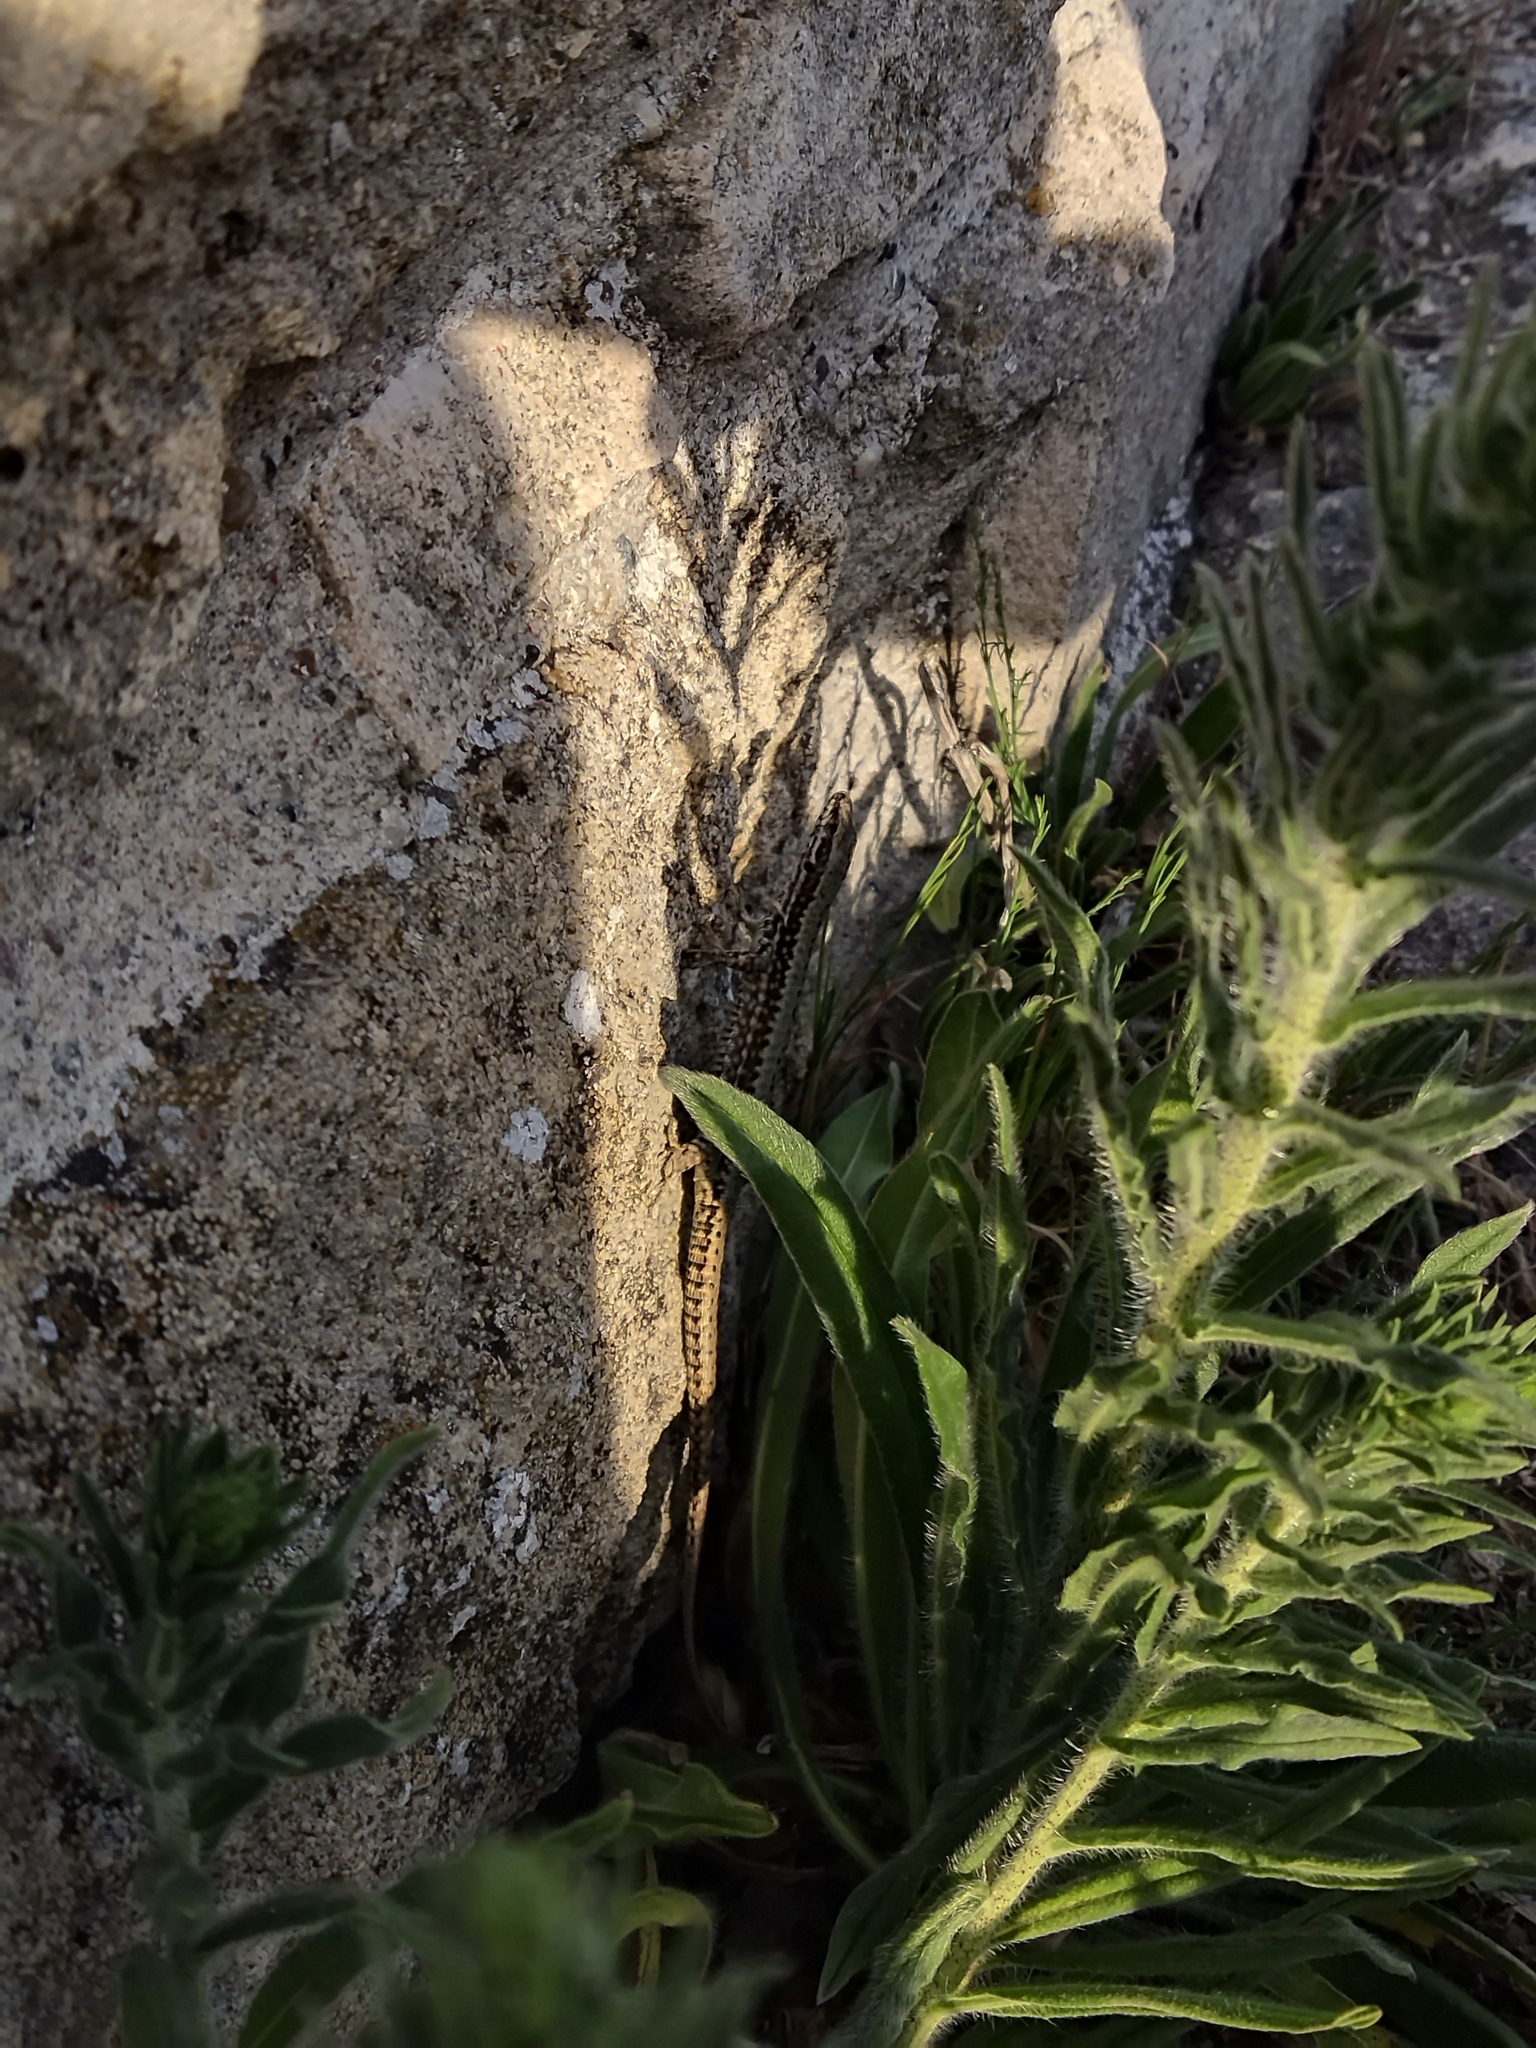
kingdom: Animalia
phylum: Chordata
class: Squamata
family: Lacertidae
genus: Podarcis
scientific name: Podarcis muralis
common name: Common wall lizard
